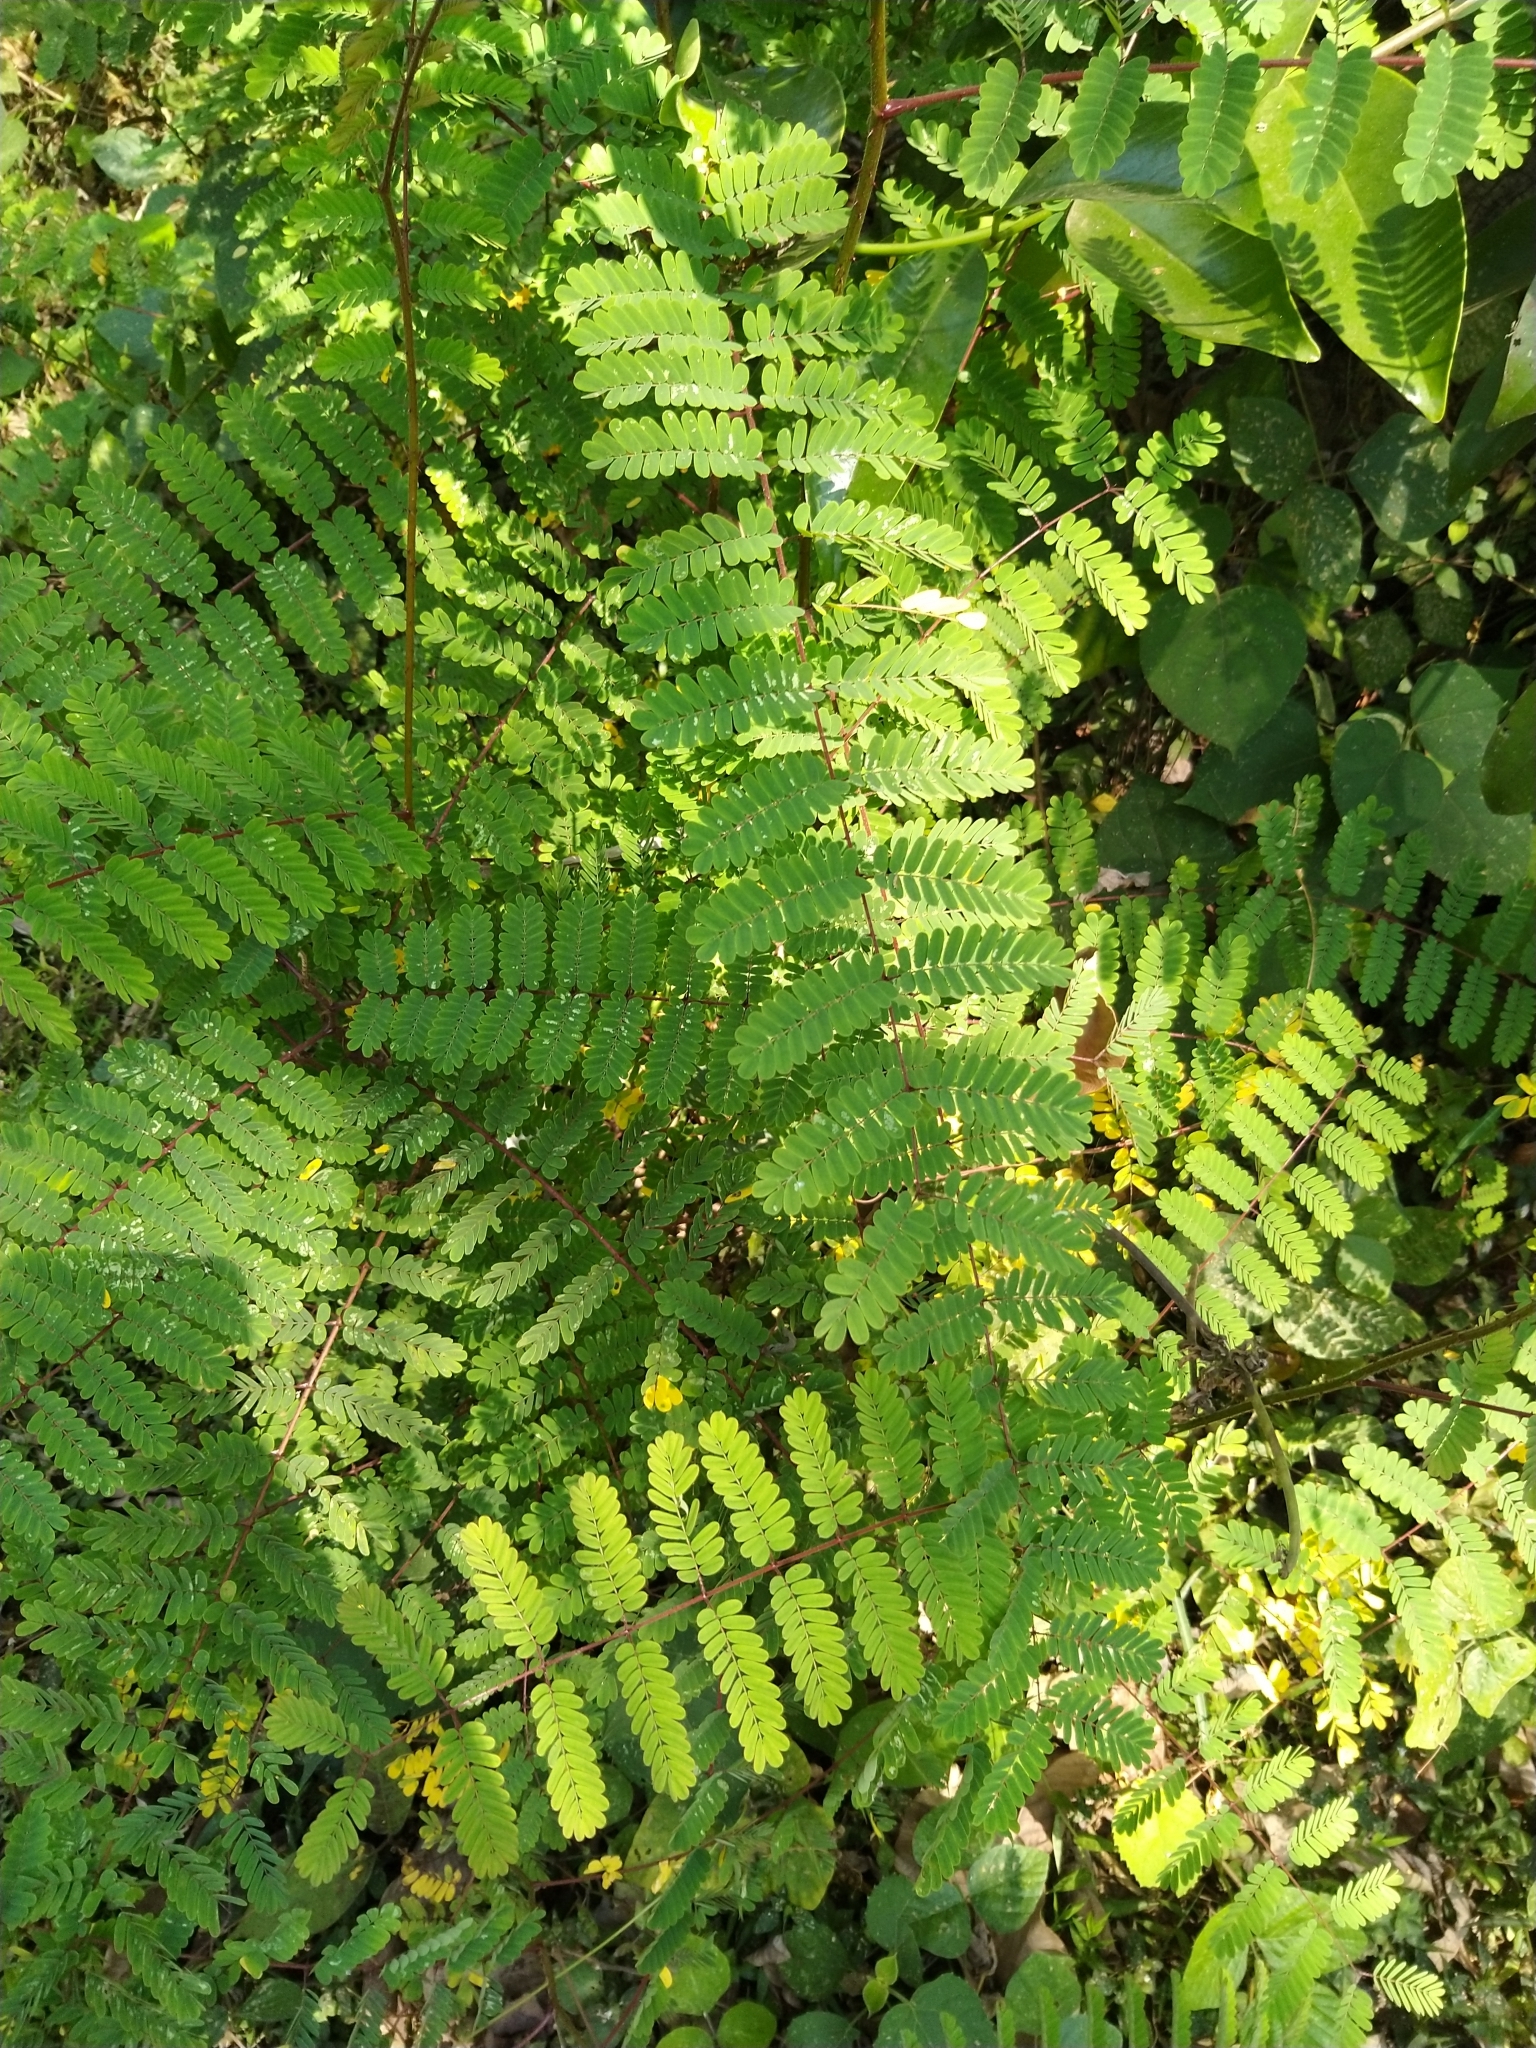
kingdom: Plantae
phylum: Tracheophyta
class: Magnoliopsida
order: Fabales
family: Fabaceae
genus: Hultholia
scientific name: Hultholia mimosoides
